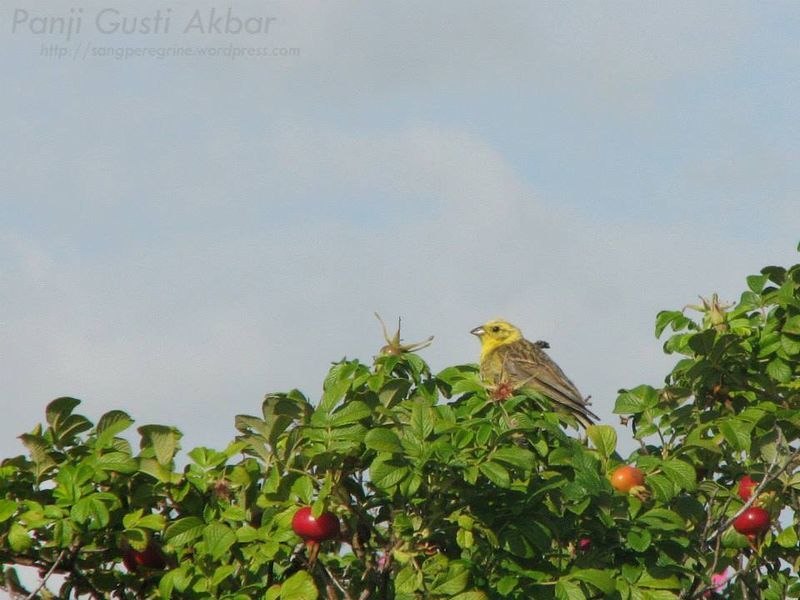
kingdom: Animalia
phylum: Chordata
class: Aves
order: Passeriformes
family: Emberizidae
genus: Emberiza
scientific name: Emberiza citrinella
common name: Yellowhammer
